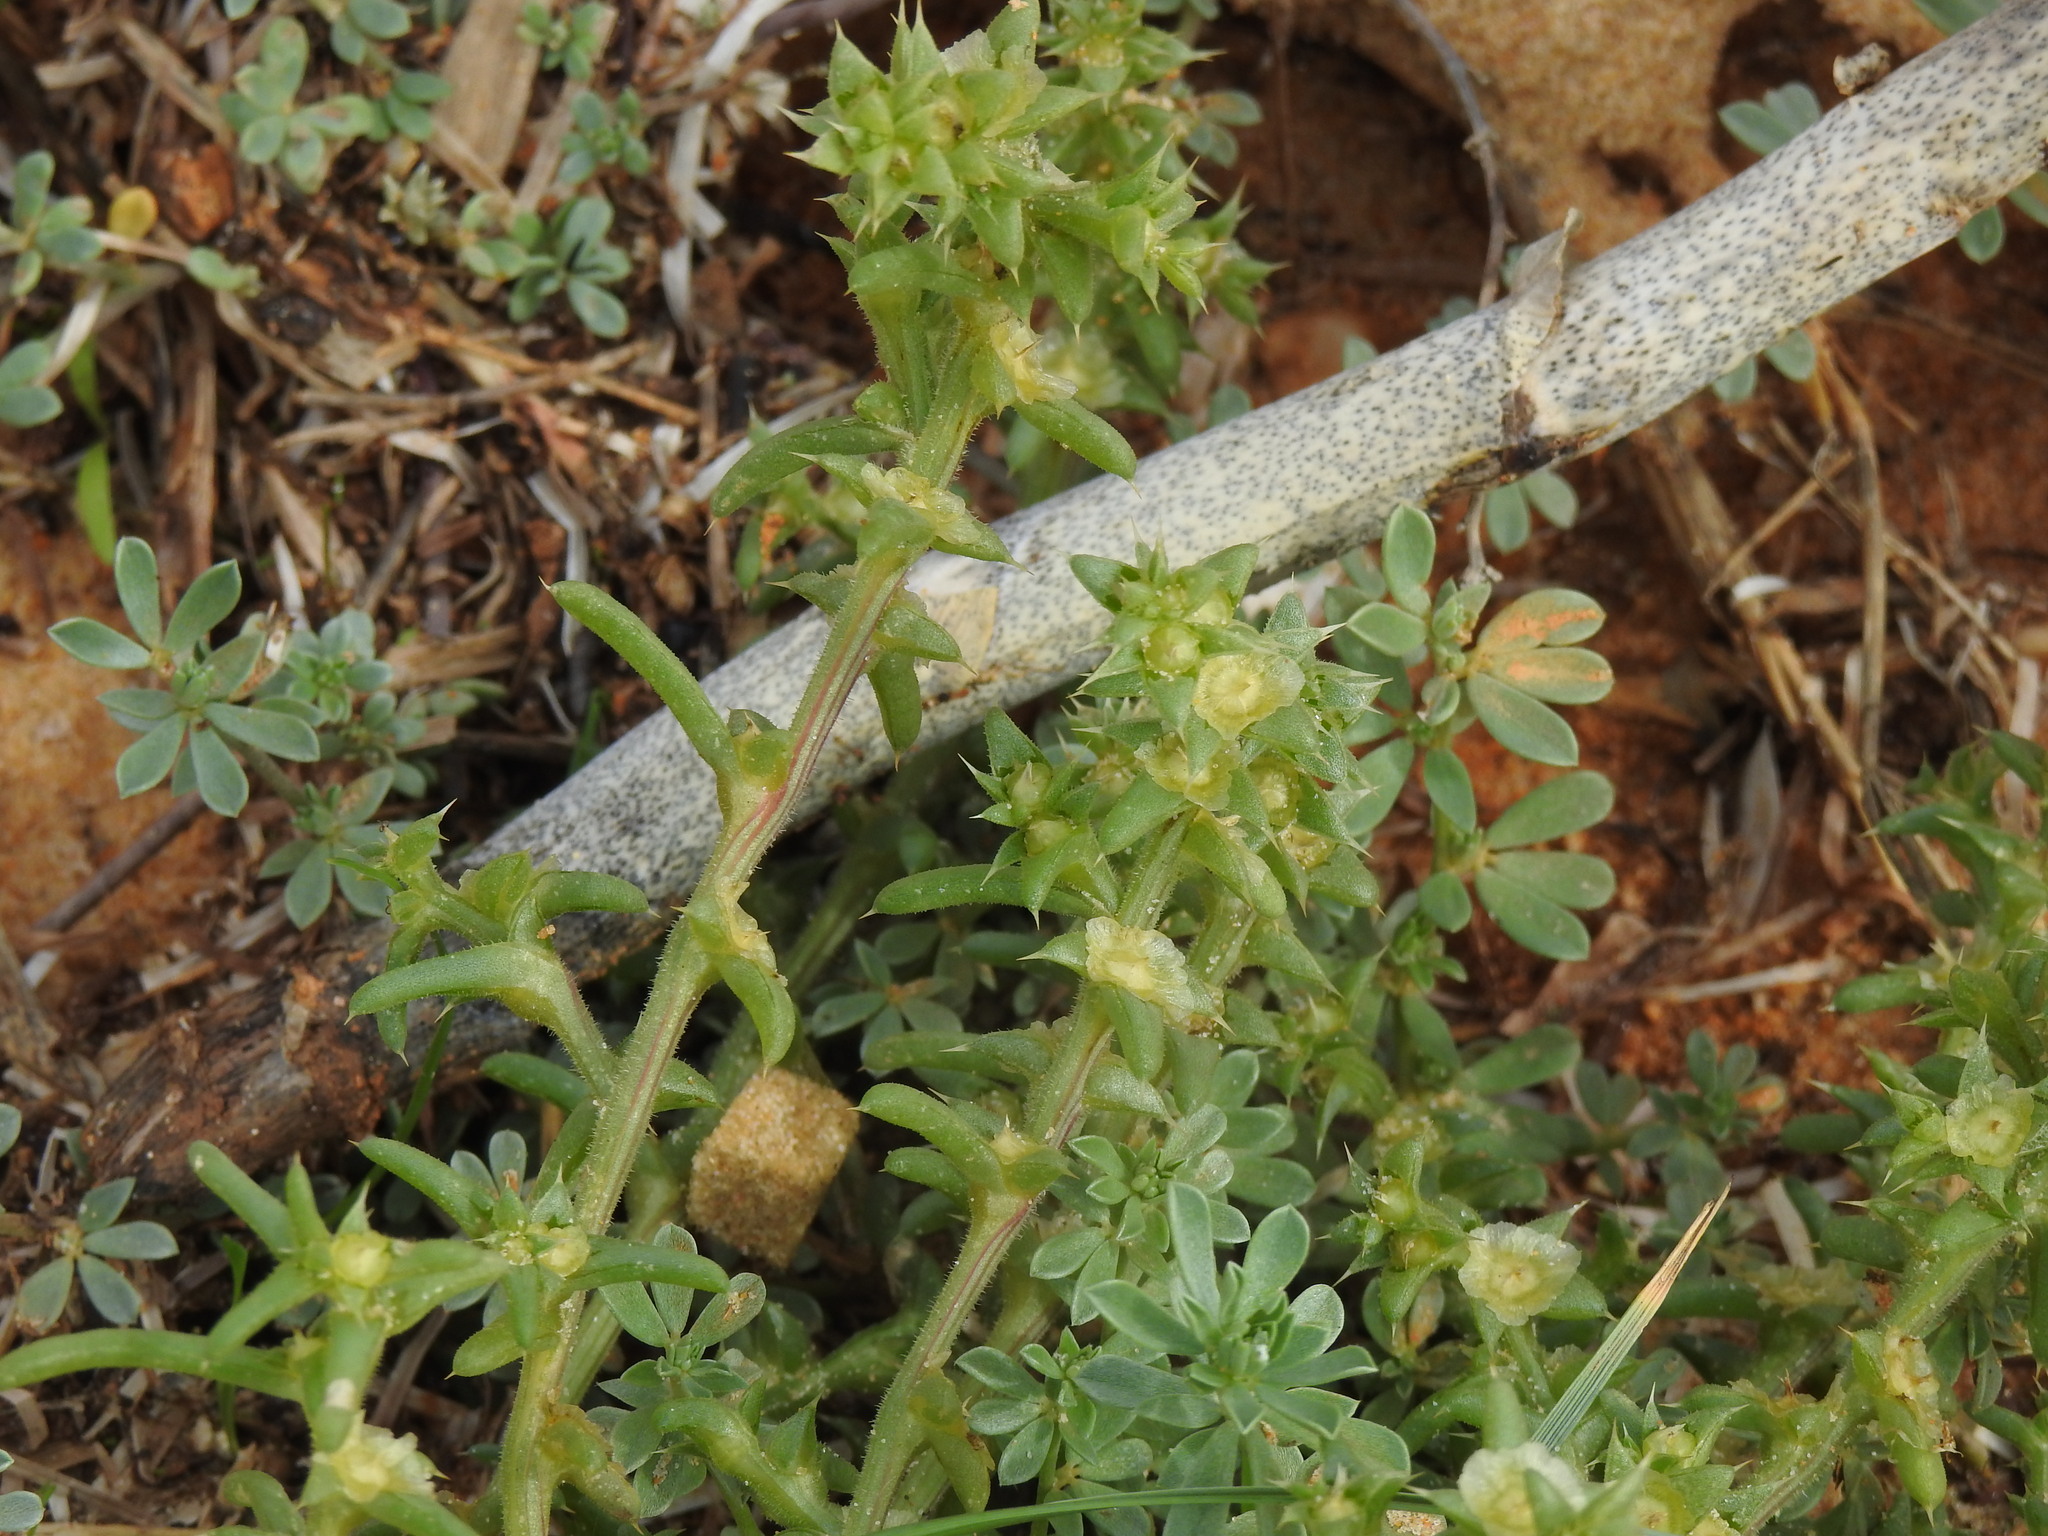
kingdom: Plantae
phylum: Tracheophyta
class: Magnoliopsida
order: Caryophyllales
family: Amaranthaceae
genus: Salsola
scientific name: Salsola kali
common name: Saltwort
